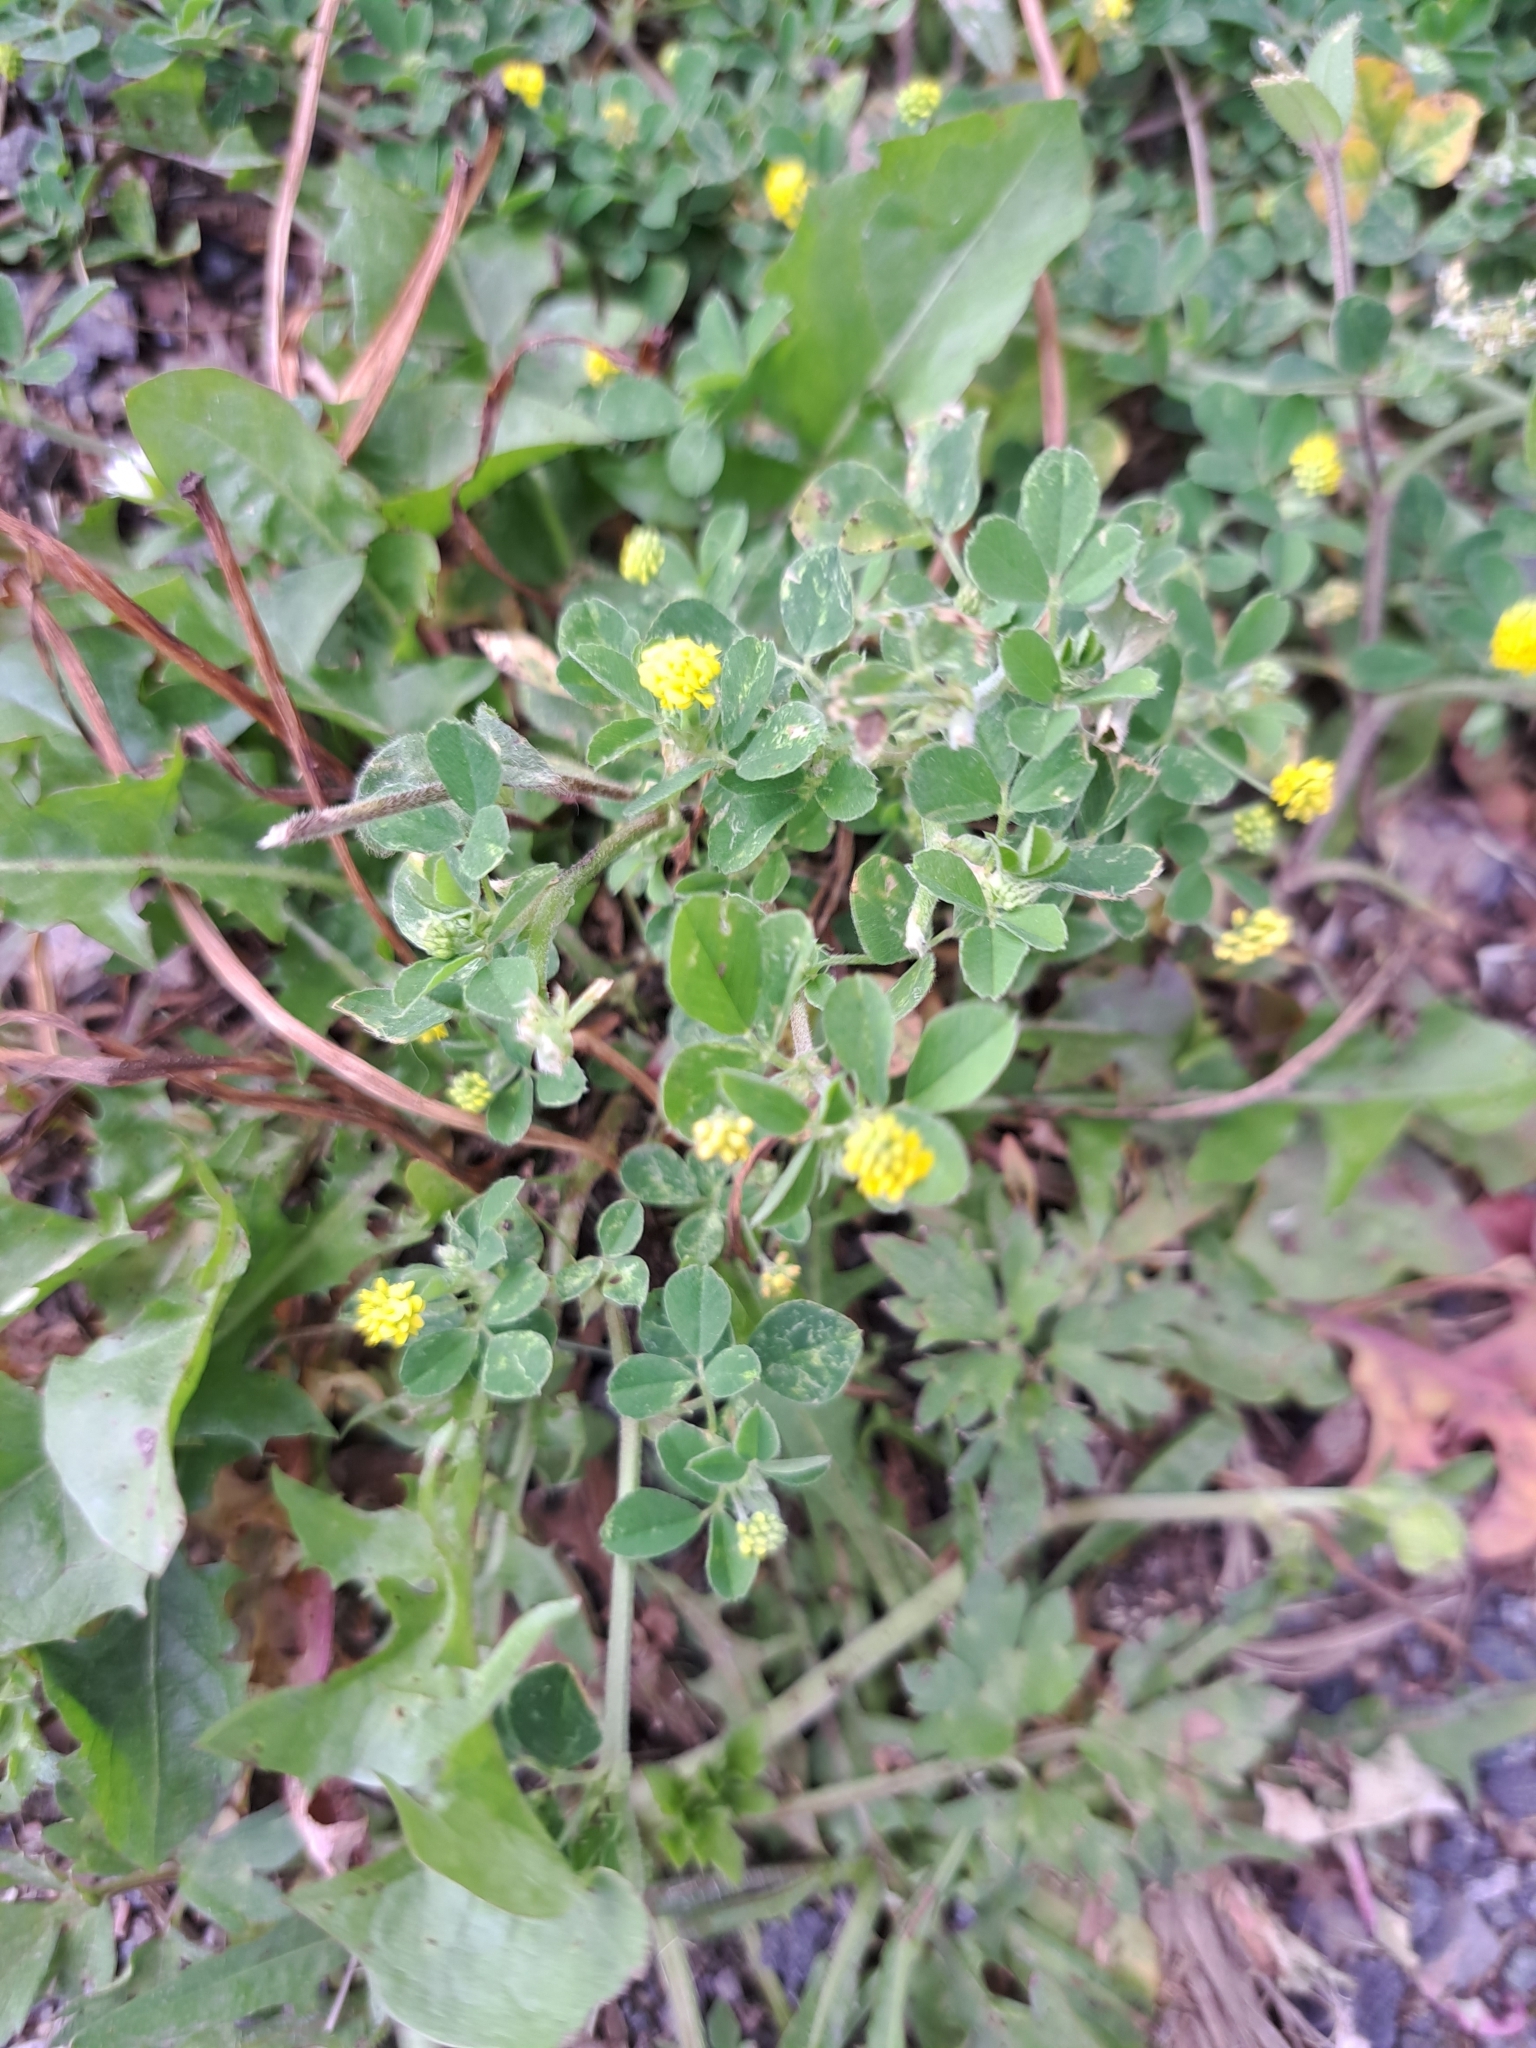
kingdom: Plantae
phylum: Tracheophyta
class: Magnoliopsida
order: Fabales
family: Fabaceae
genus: Medicago
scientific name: Medicago lupulina
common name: Black medick
